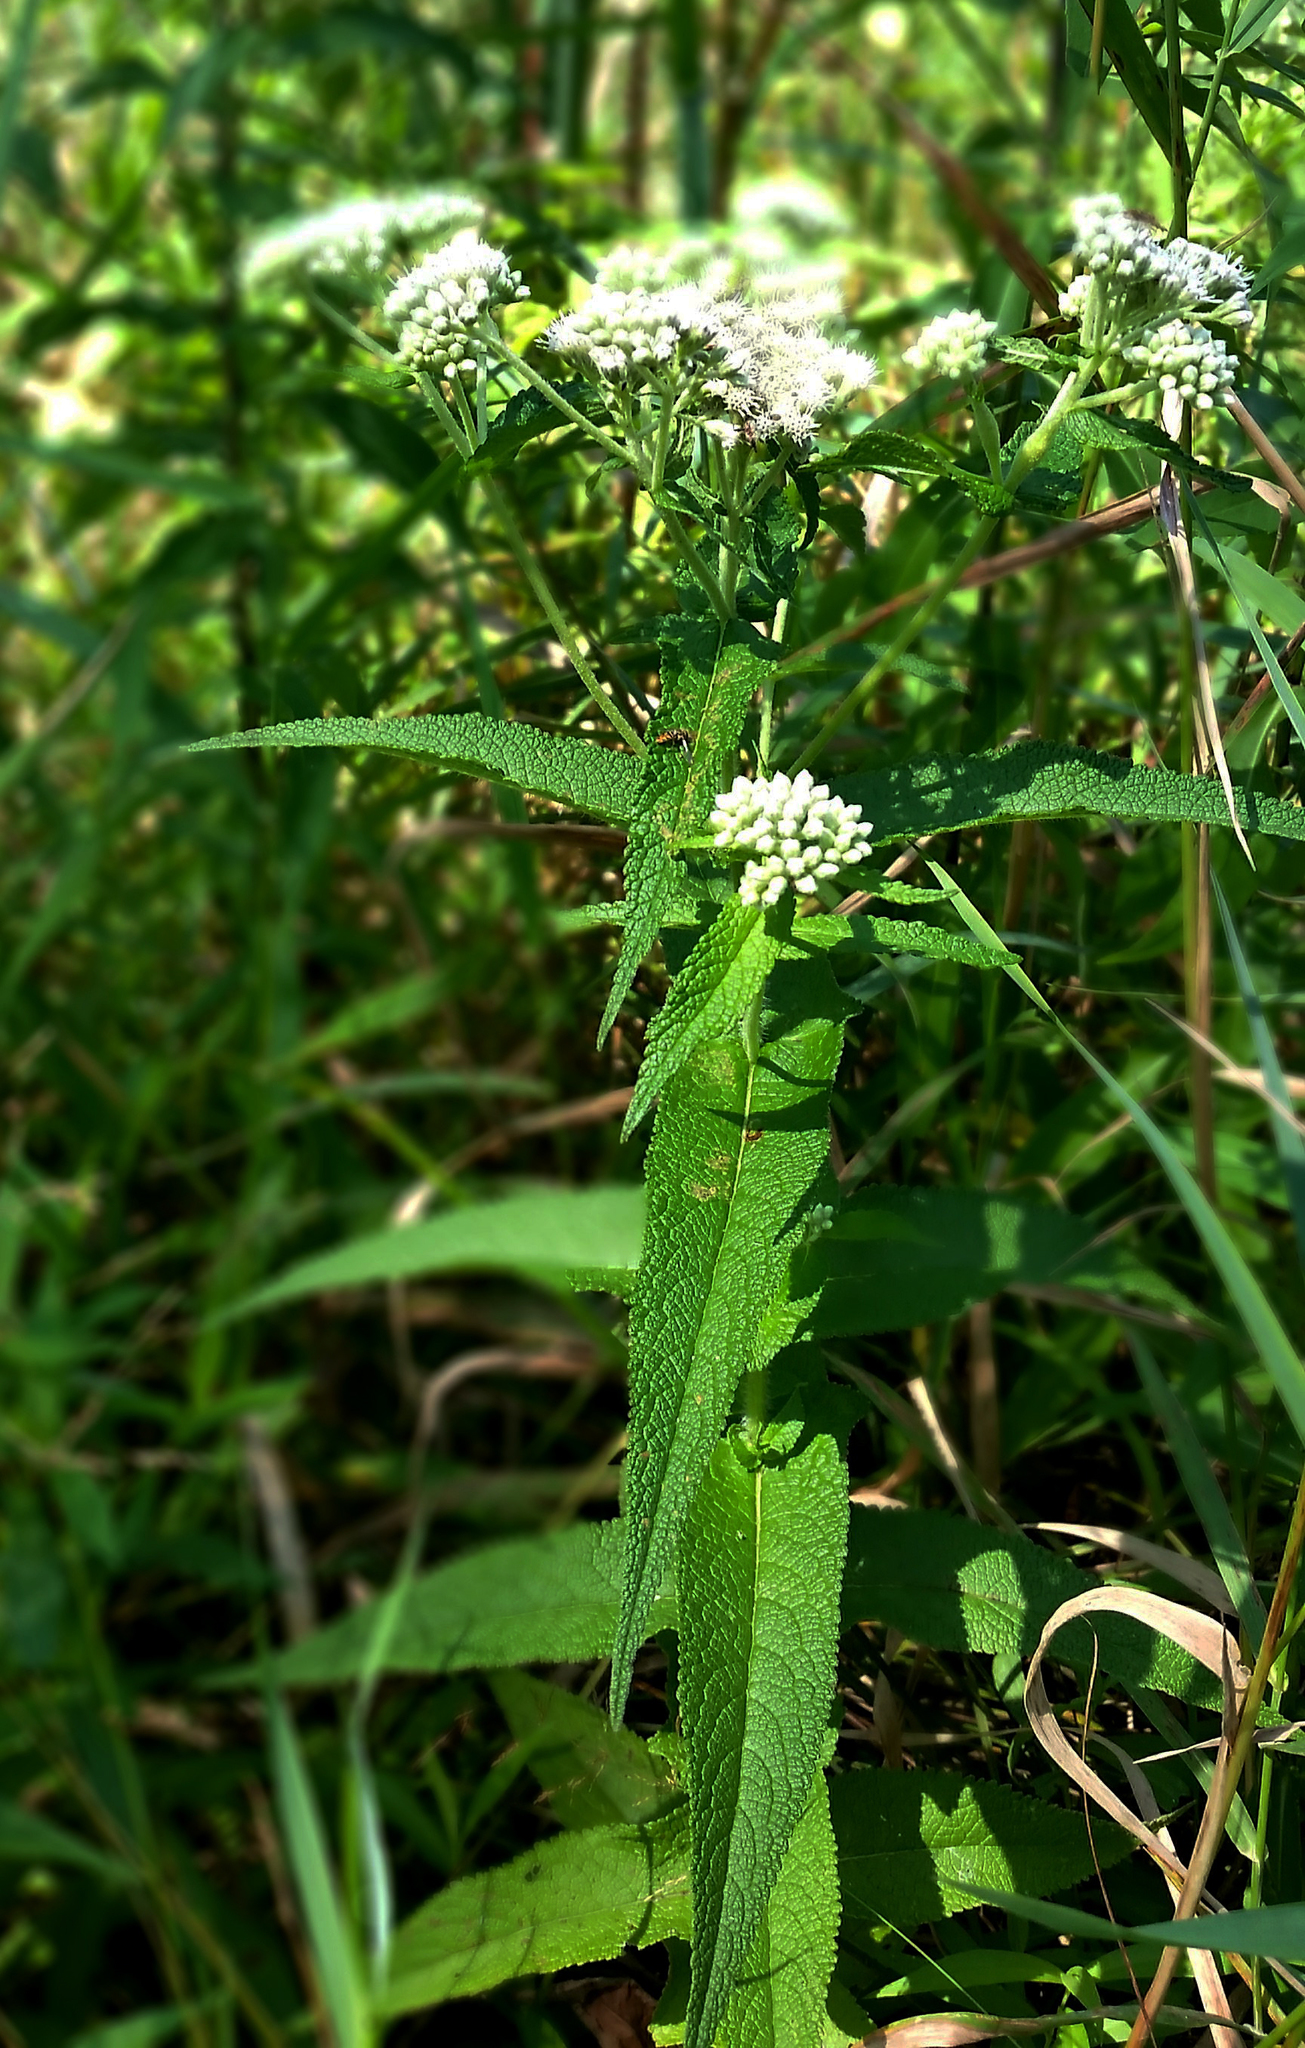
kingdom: Plantae
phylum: Tracheophyta
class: Magnoliopsida
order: Asterales
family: Asteraceae
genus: Eupatorium
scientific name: Eupatorium perfoliatum
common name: Boneset
